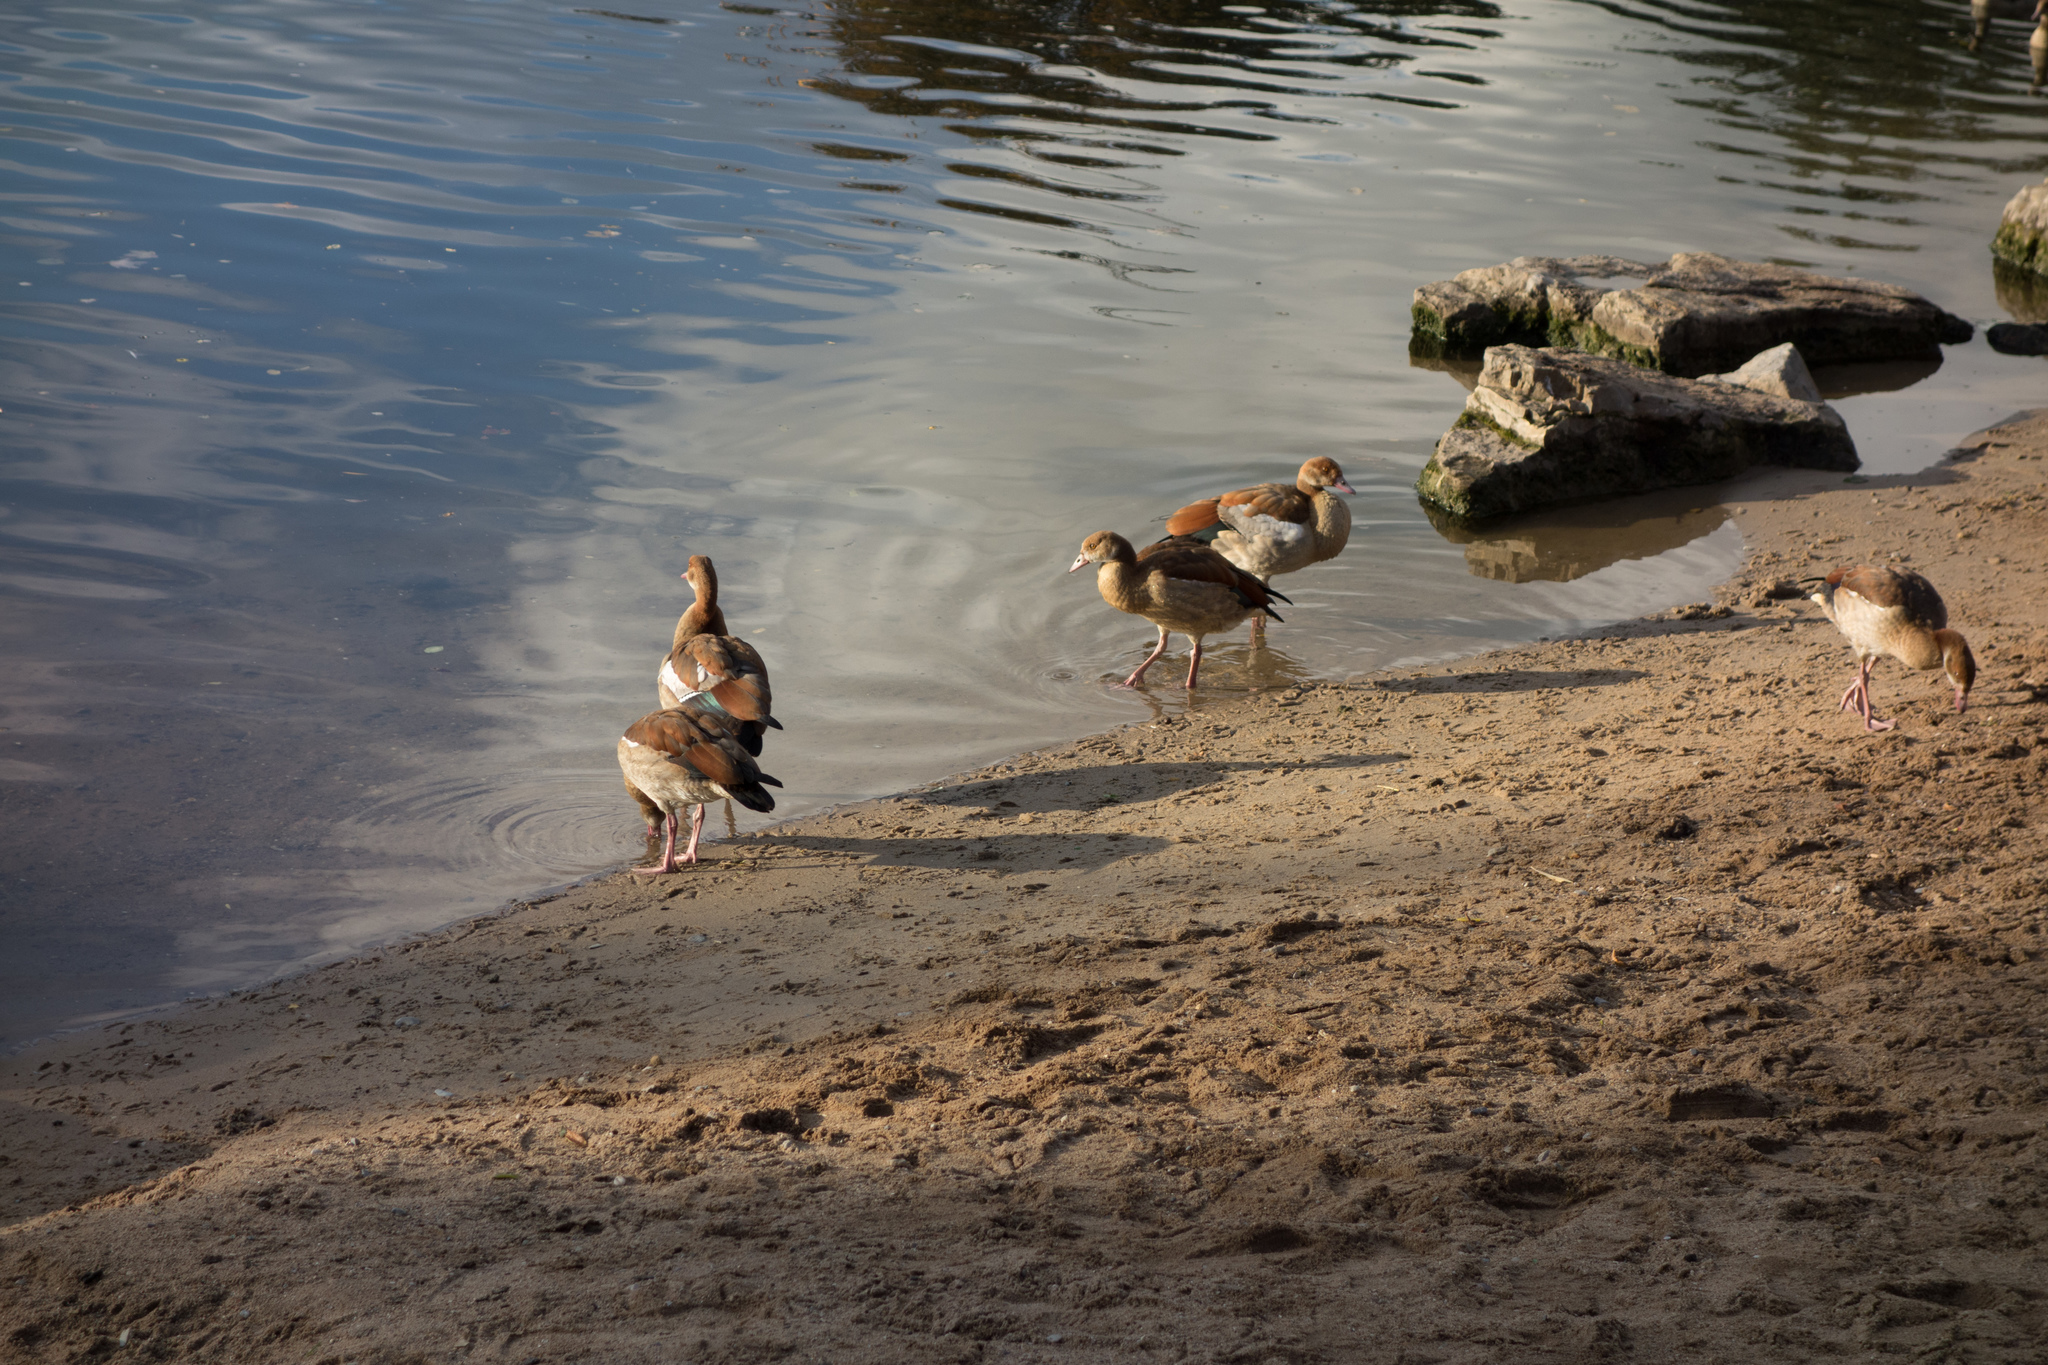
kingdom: Animalia
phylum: Chordata
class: Aves
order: Anseriformes
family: Anatidae
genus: Alopochen
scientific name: Alopochen aegyptiaca
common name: Egyptian goose
